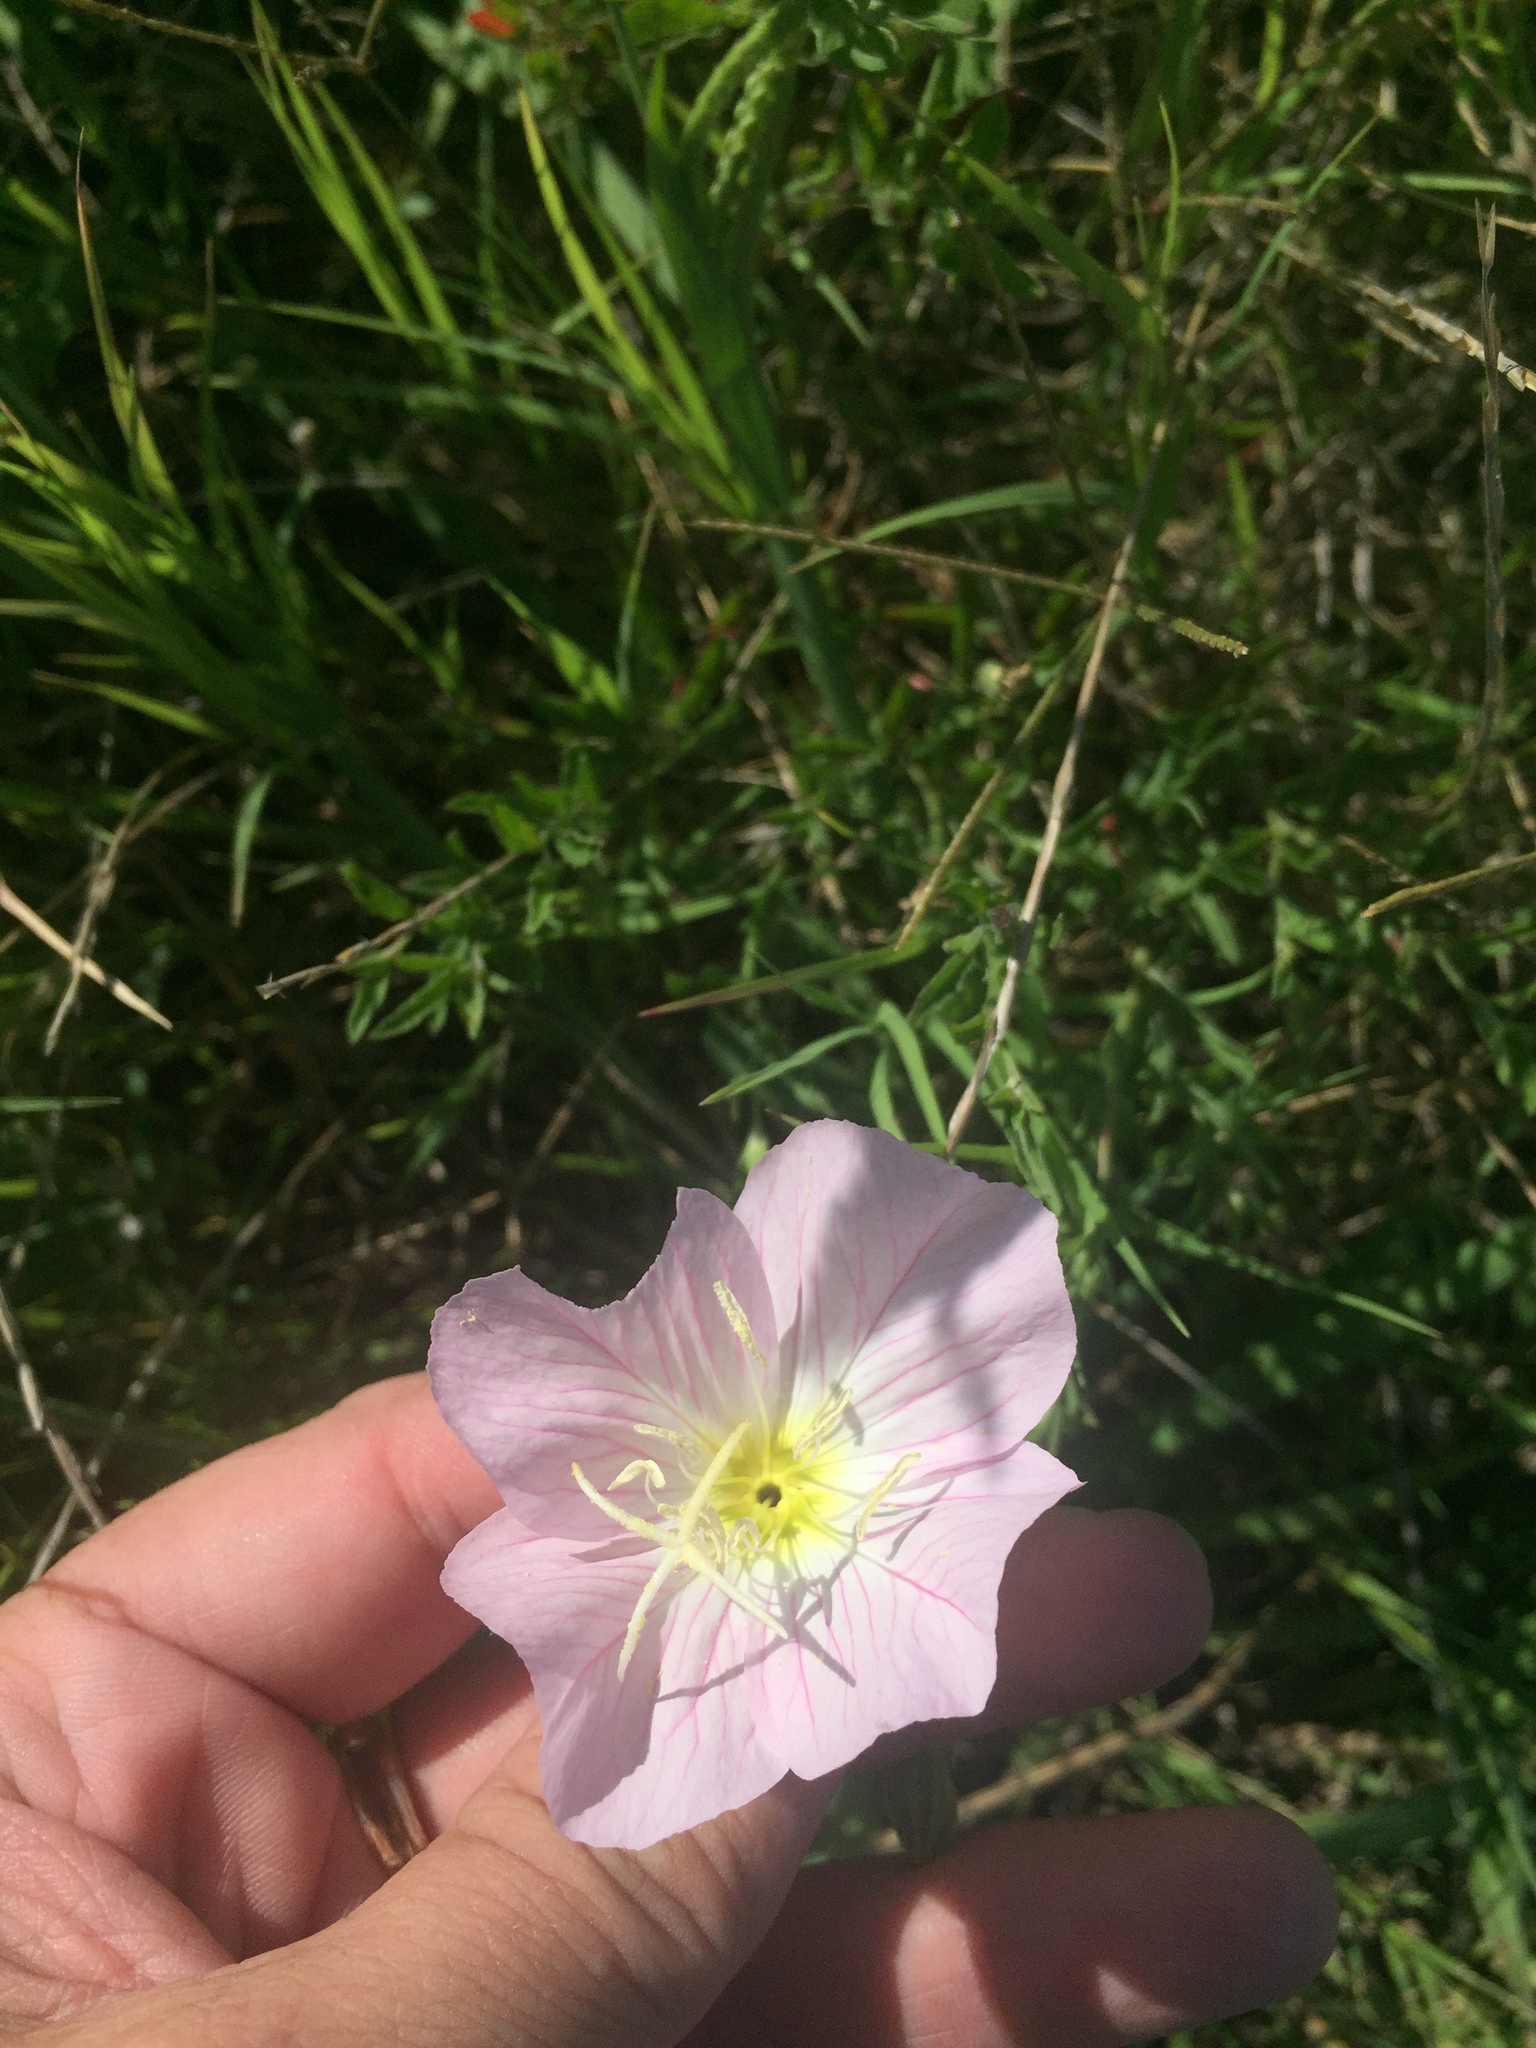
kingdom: Plantae
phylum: Tracheophyta
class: Magnoliopsida
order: Myrtales
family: Onagraceae
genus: Oenothera
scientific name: Oenothera speciosa
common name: White evening-primrose
